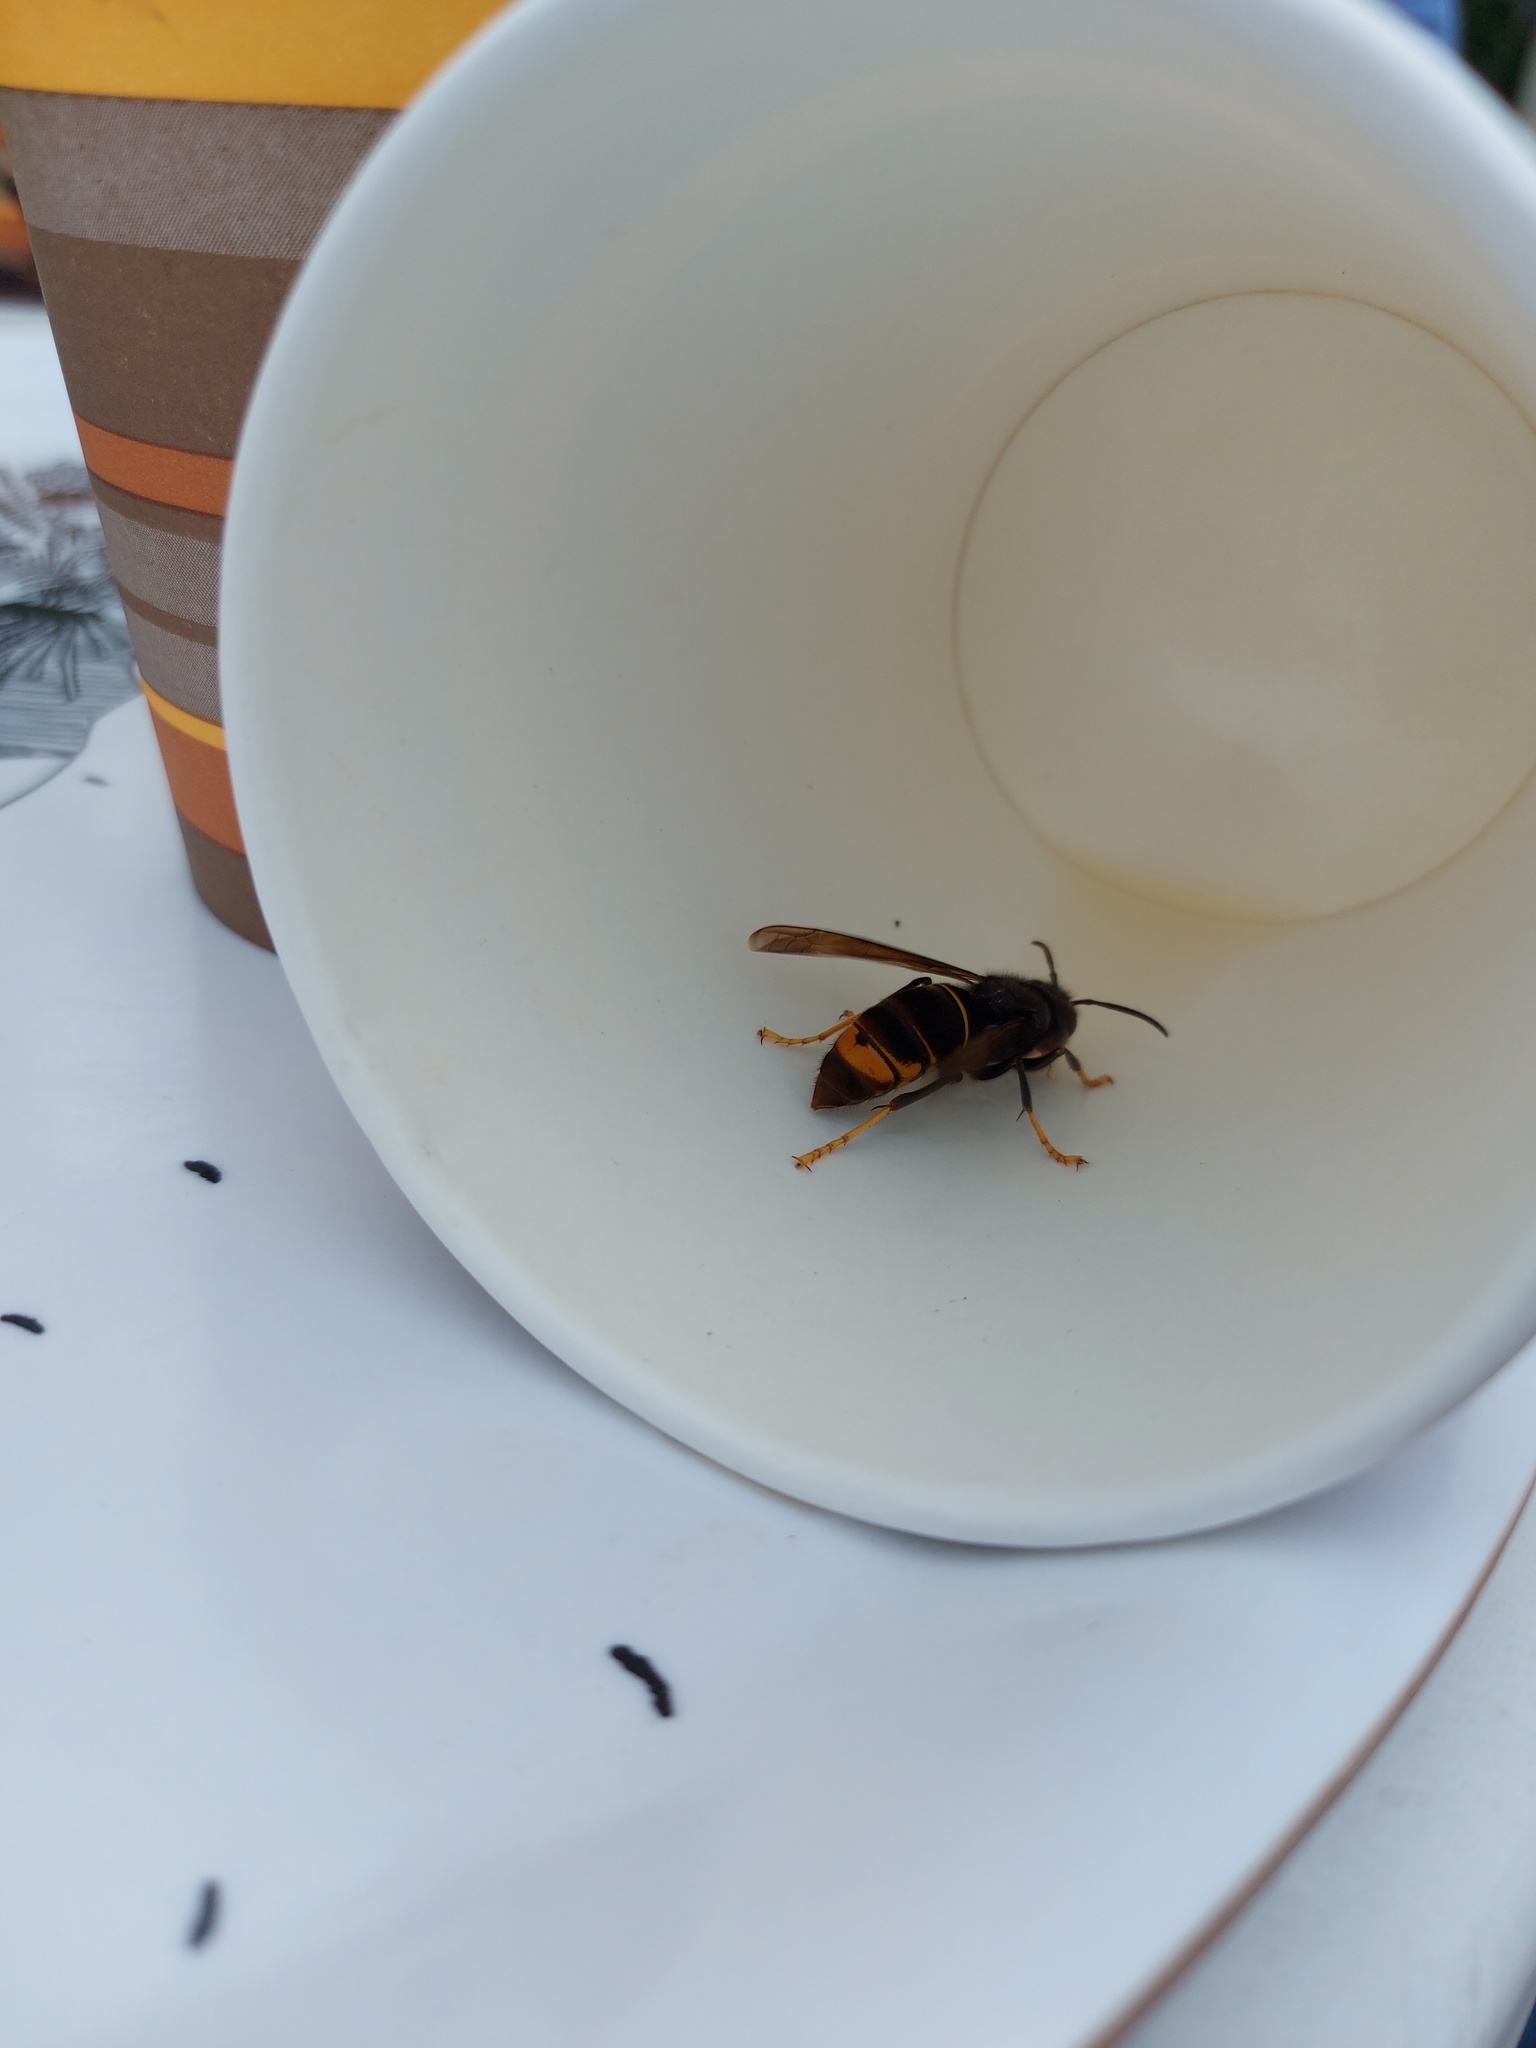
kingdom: Animalia
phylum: Arthropoda
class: Insecta
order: Hymenoptera
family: Vespidae
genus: Vespa
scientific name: Vespa velutina
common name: Asian hornet
